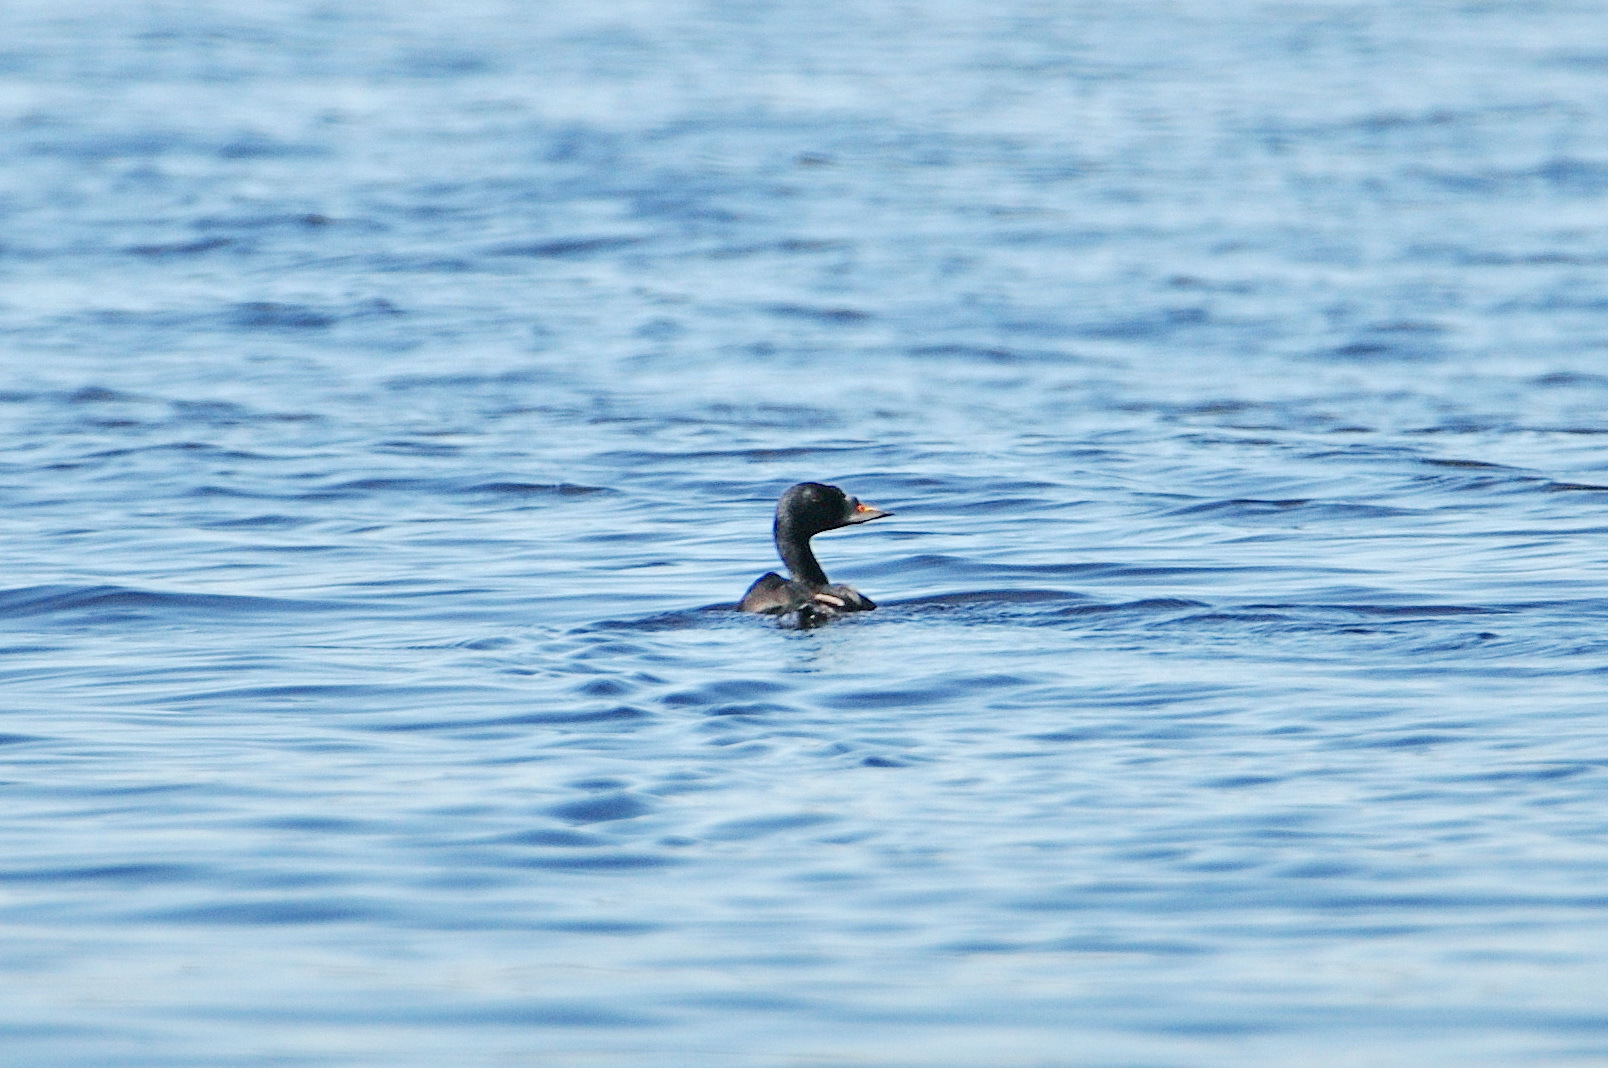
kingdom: Animalia
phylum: Chordata
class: Aves
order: Anseriformes
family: Anatidae
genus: Melanitta
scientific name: Melanitta nigra
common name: Common scoter
